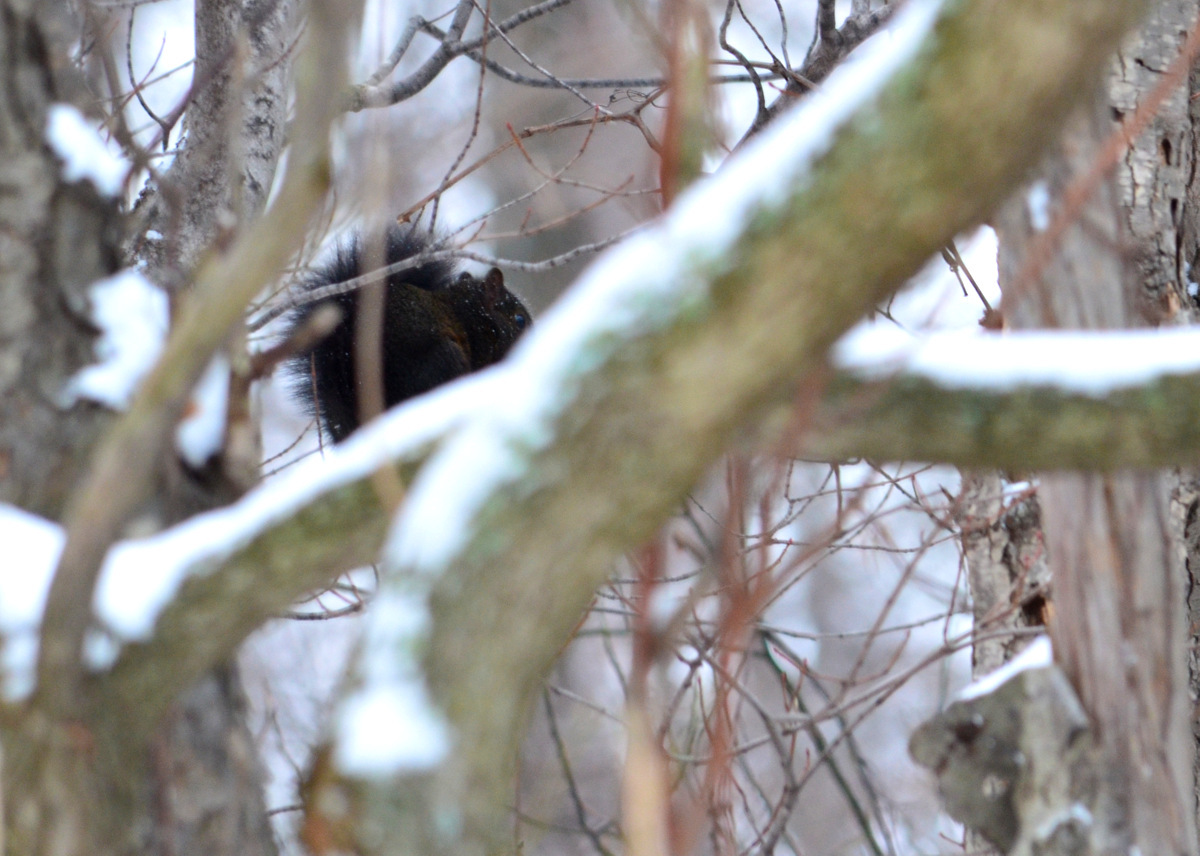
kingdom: Animalia
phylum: Chordata
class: Mammalia
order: Rodentia
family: Sciuridae
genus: Sciurus
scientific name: Sciurus carolinensis
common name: Eastern gray squirrel
